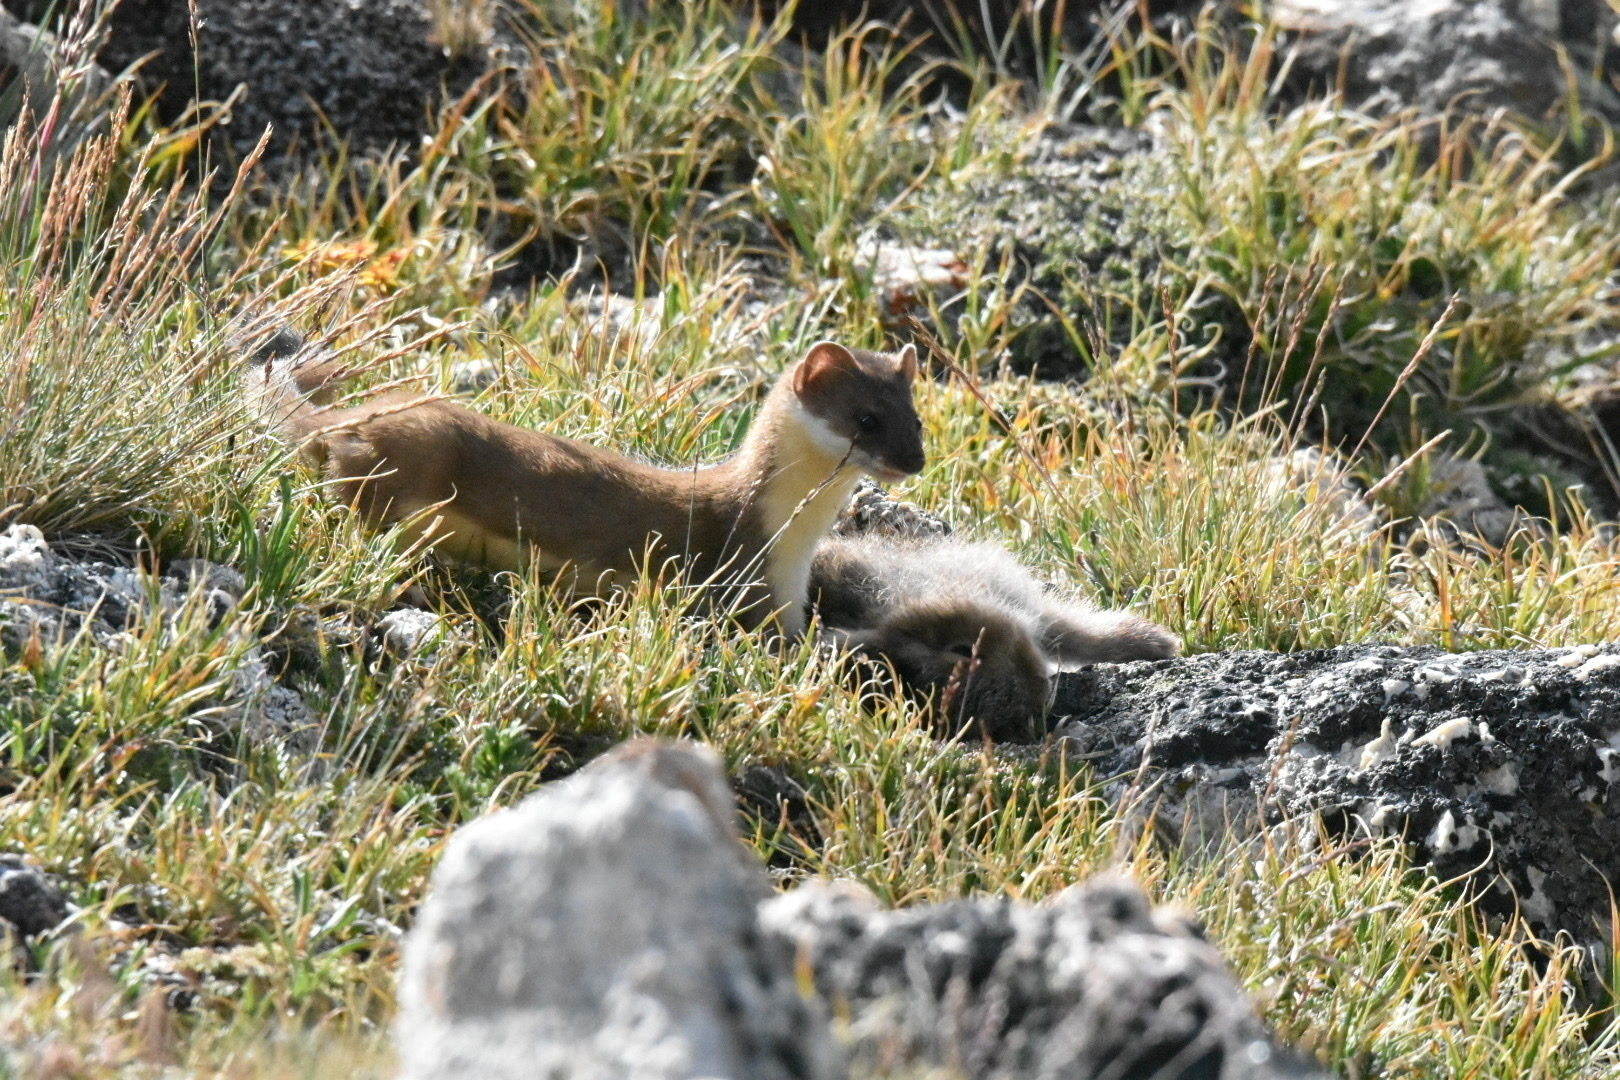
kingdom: Animalia
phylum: Chordata
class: Mammalia
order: Lagomorpha
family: Leporidae
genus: Lepus
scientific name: Lepus americanus
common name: Snowshoe hare
